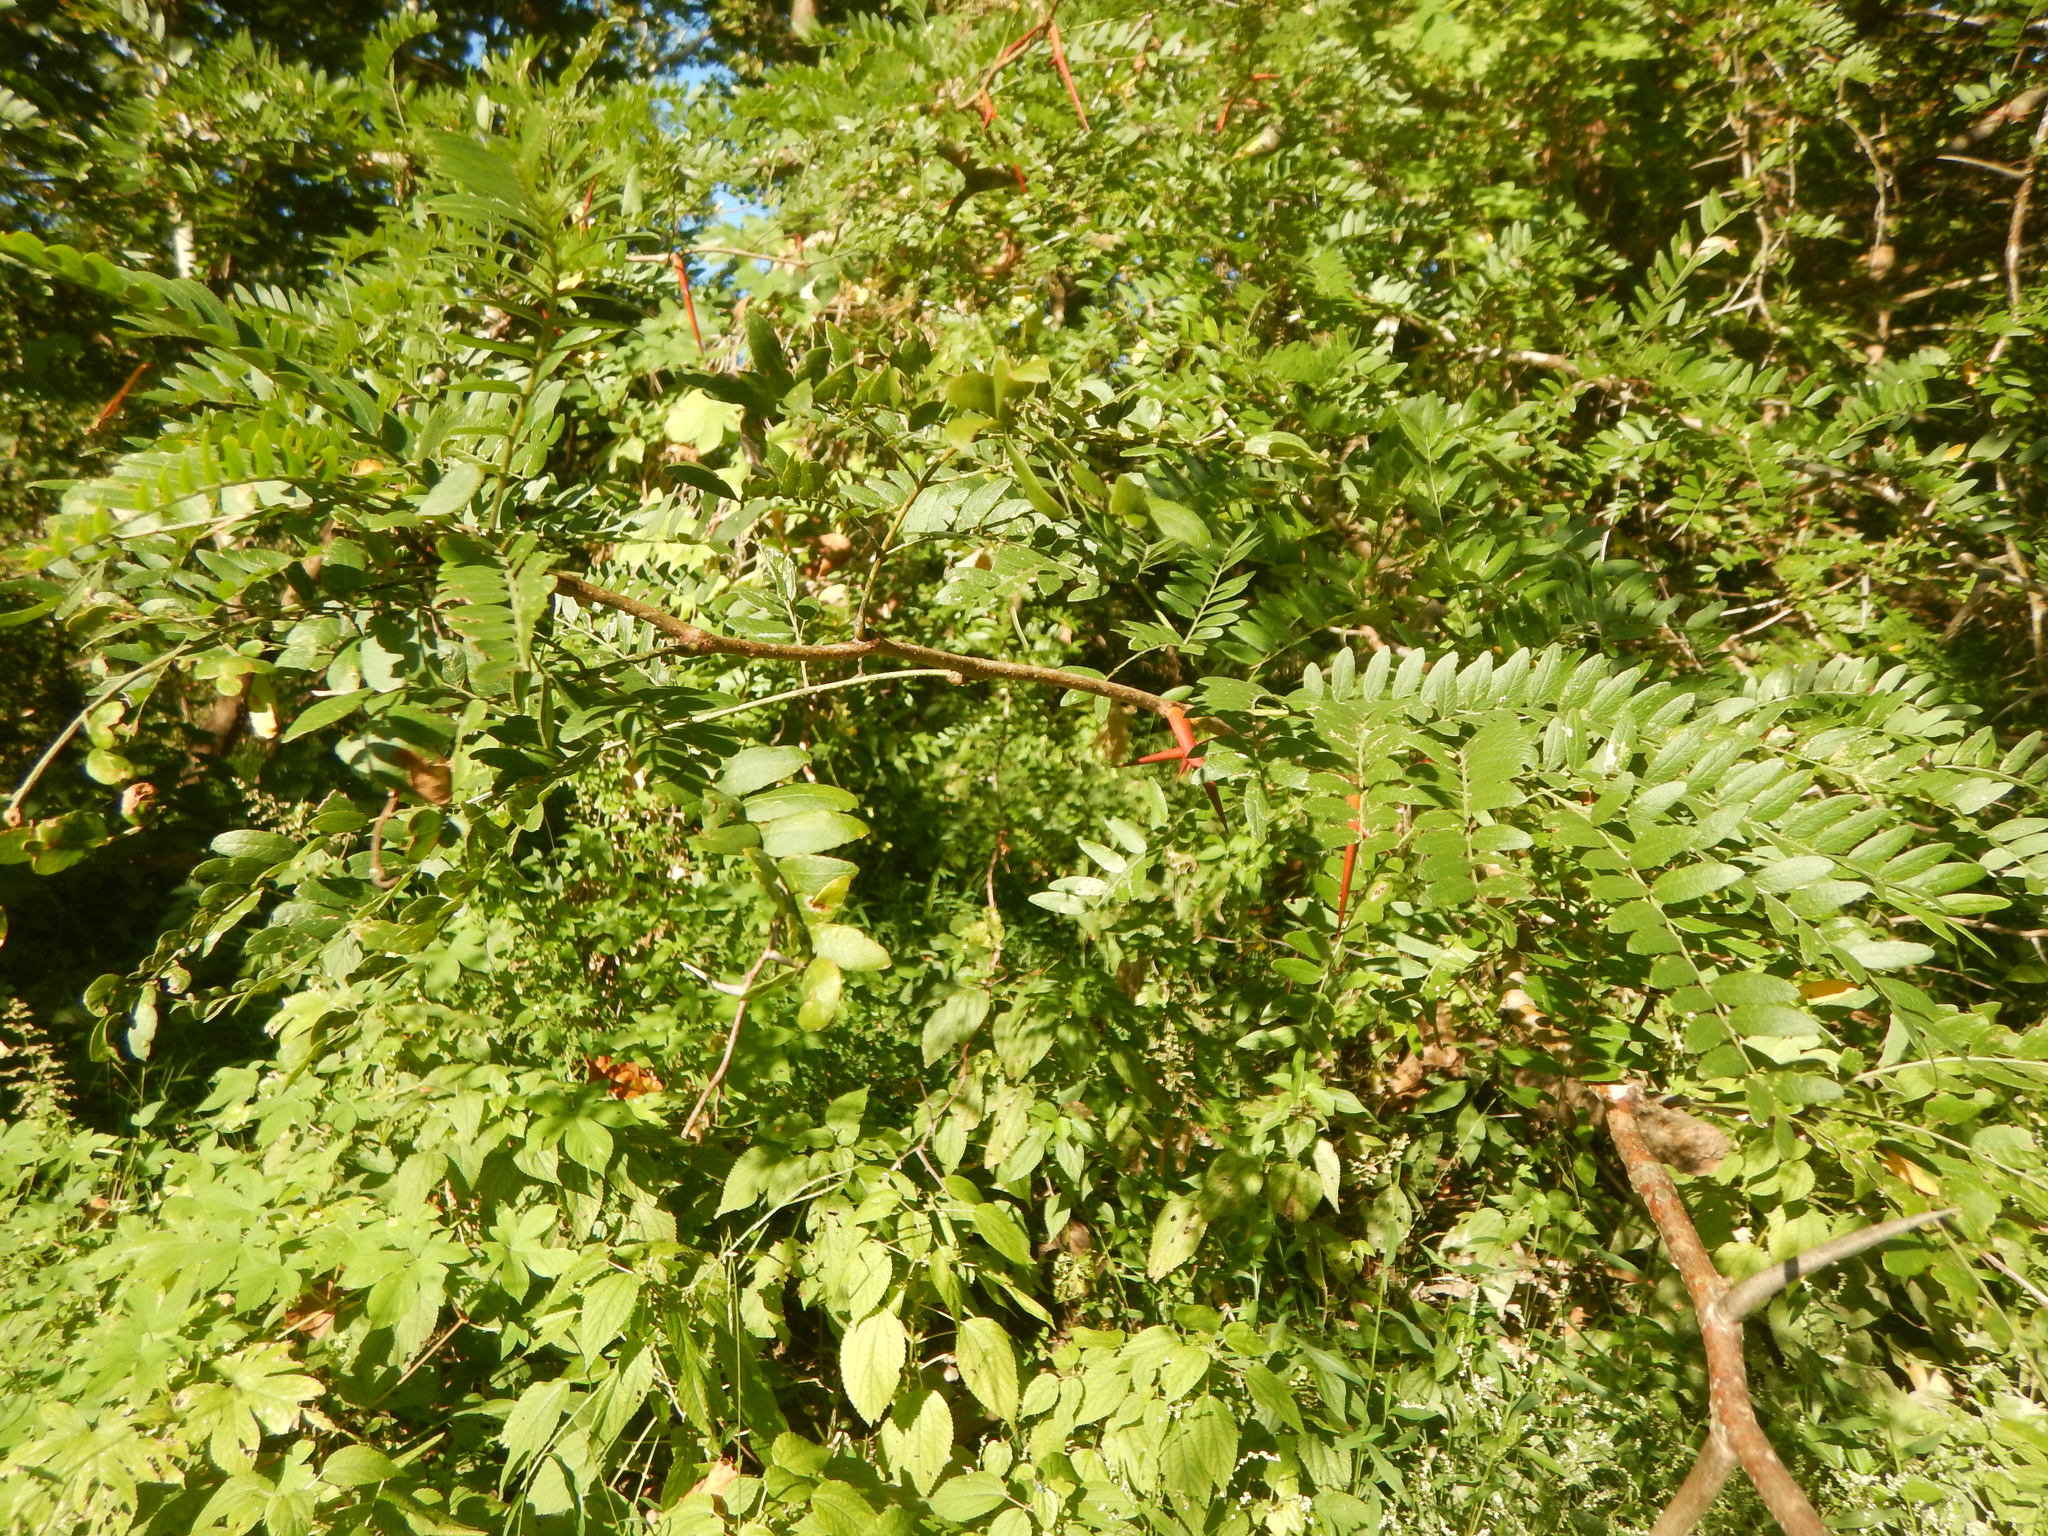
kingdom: Plantae
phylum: Tracheophyta
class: Magnoliopsida
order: Fabales
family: Fabaceae
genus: Gleditsia
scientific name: Gleditsia triacanthos
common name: Common honeylocust
